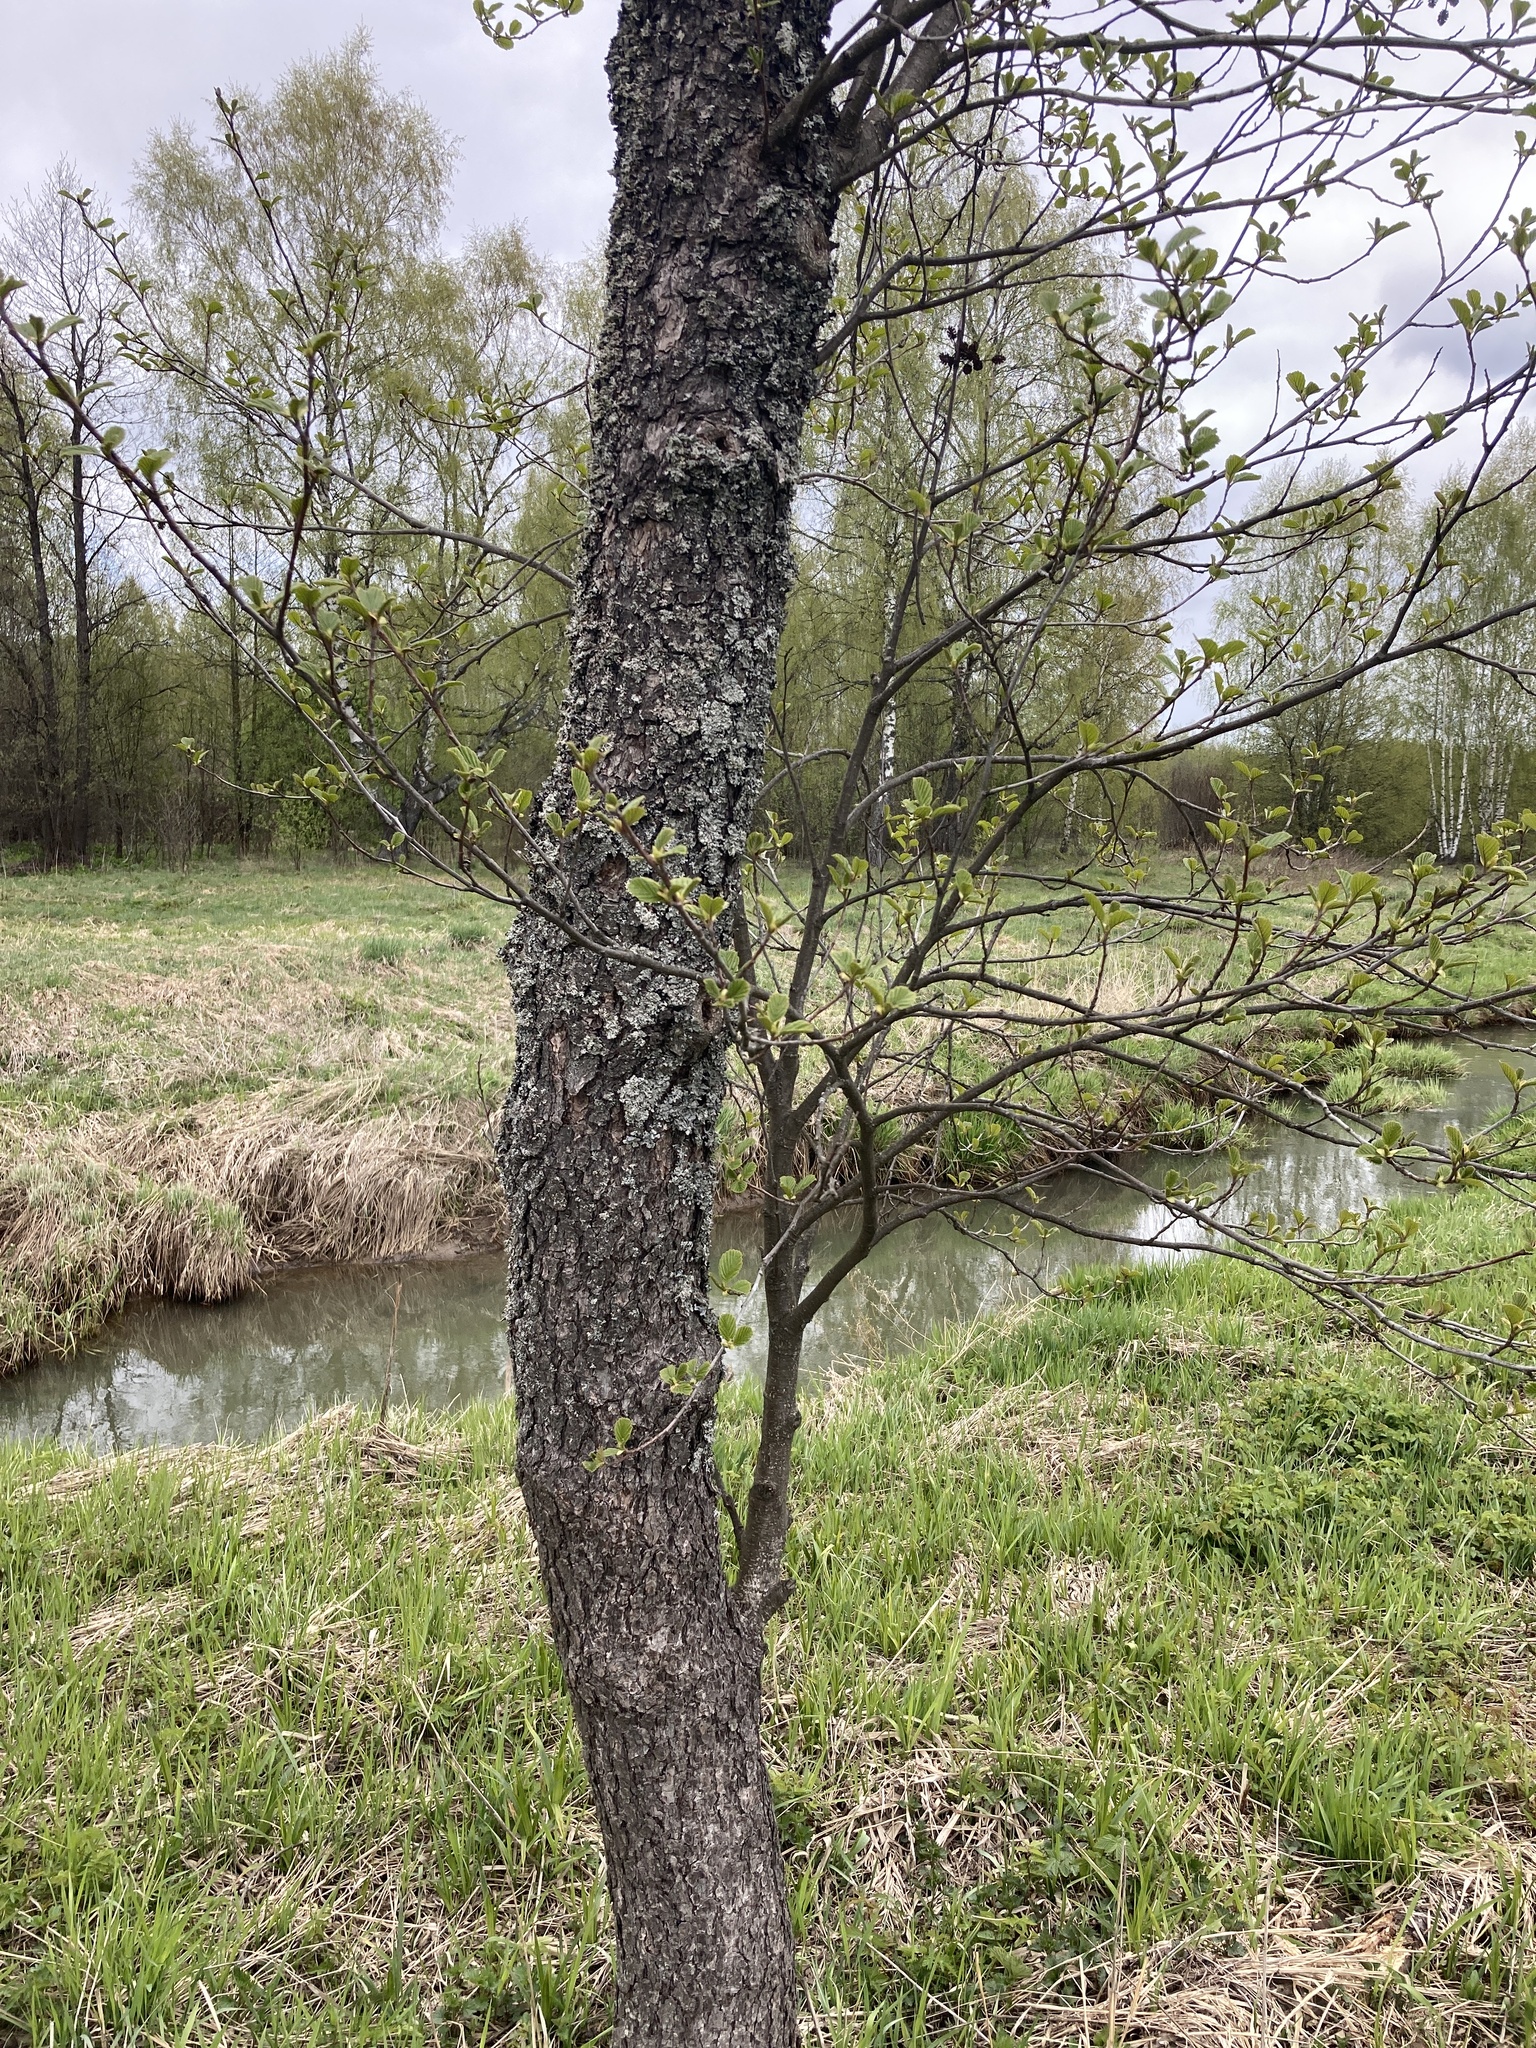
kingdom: Plantae
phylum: Tracheophyta
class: Magnoliopsida
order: Fagales
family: Betulaceae
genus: Alnus
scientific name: Alnus glutinosa
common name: Black alder
